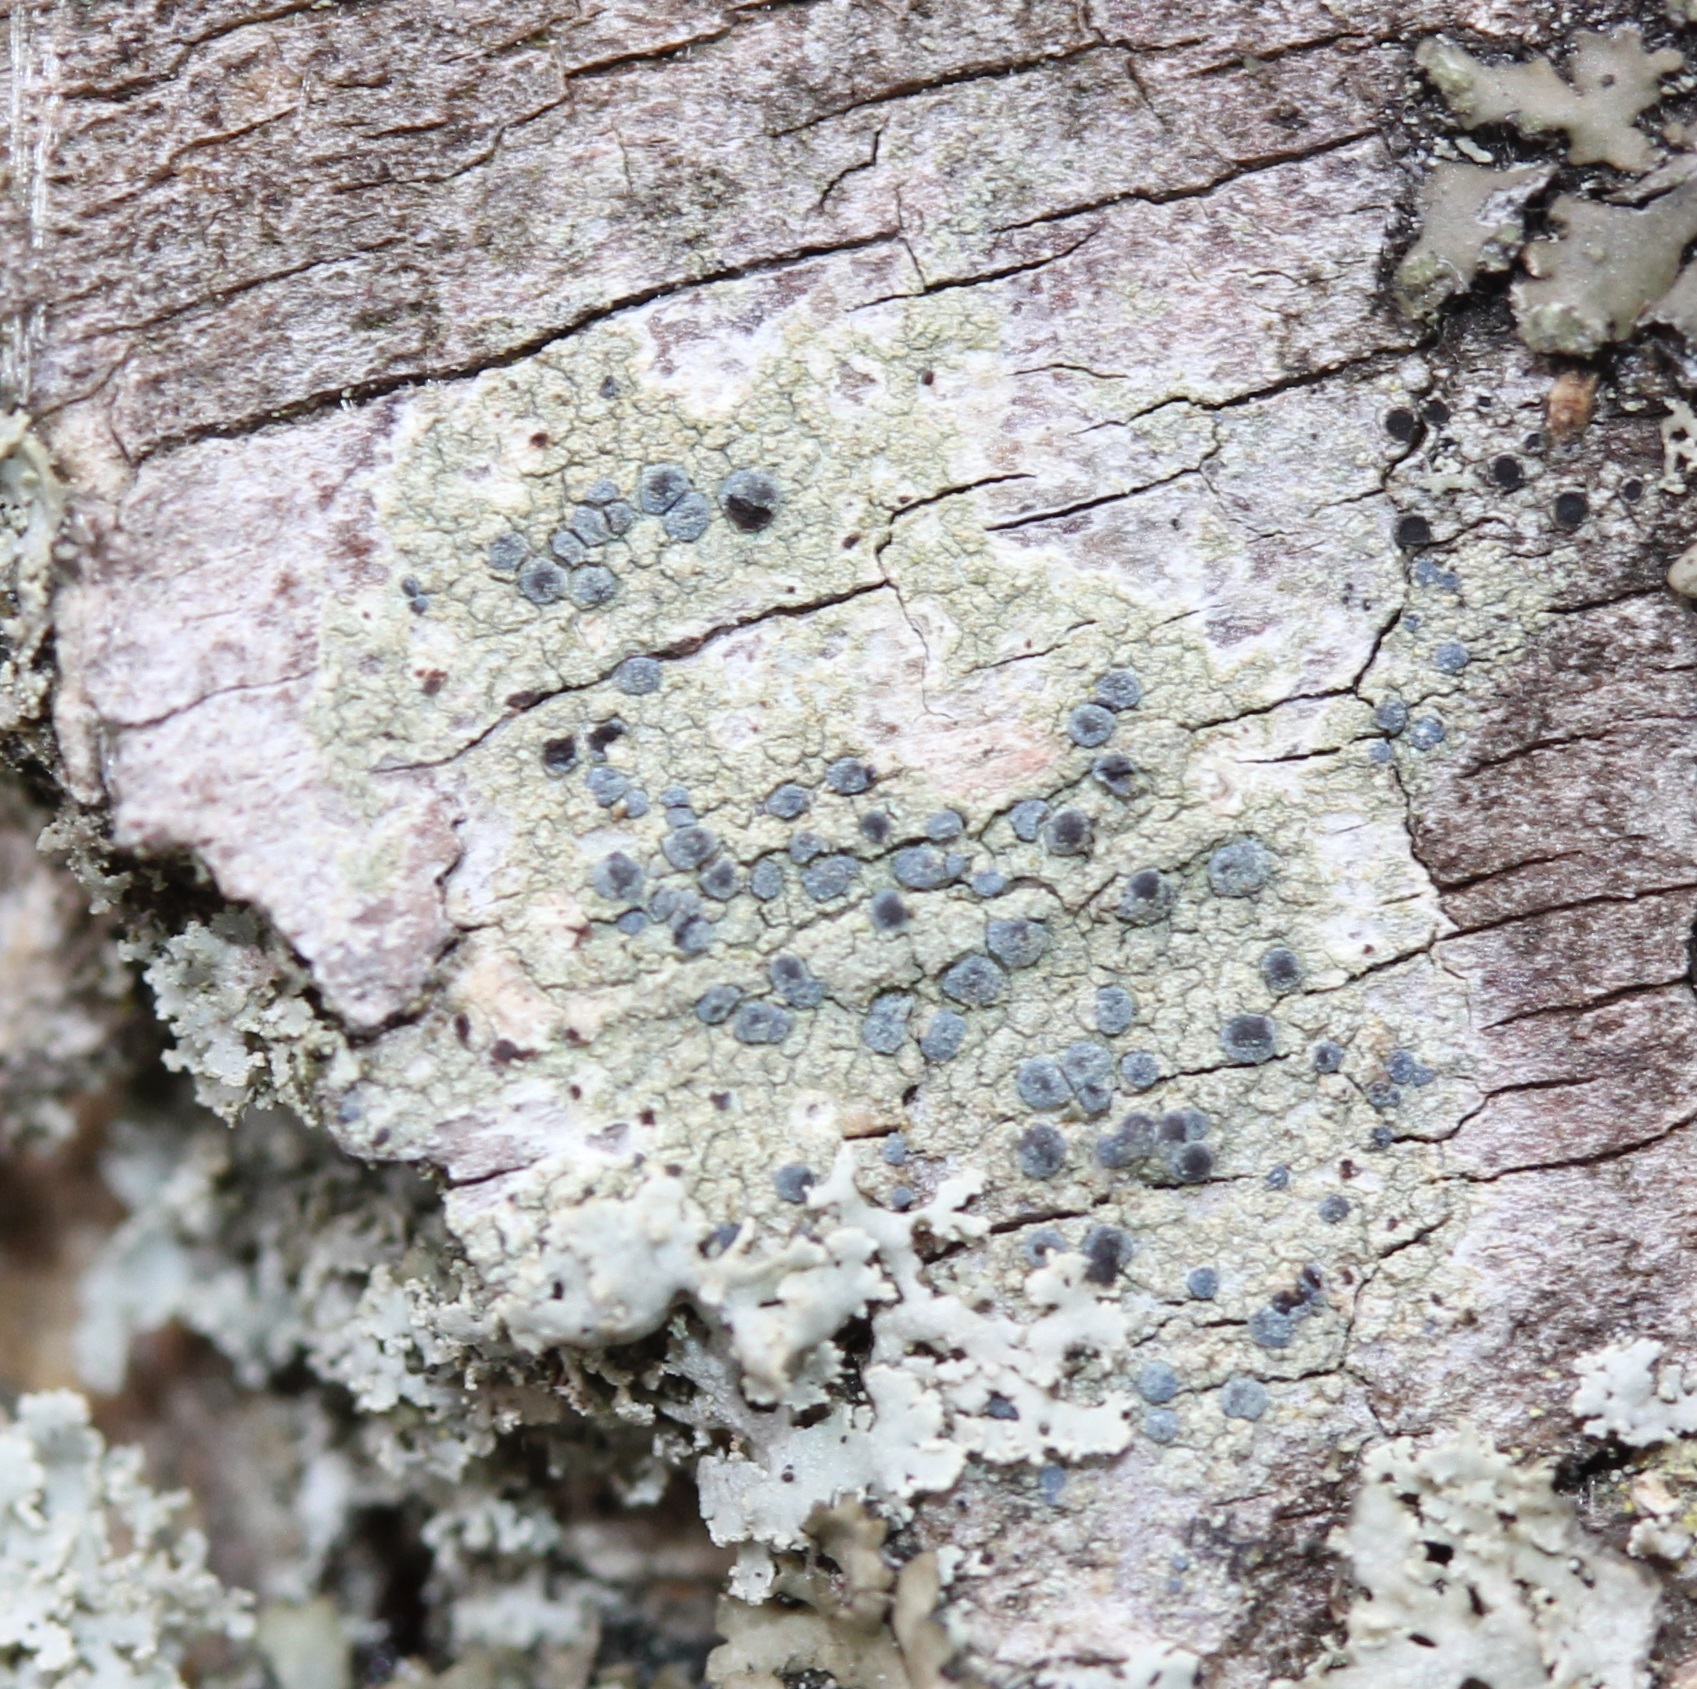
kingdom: Fungi
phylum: Ascomycota
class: Arthoniomycetes
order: Arthoniales
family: Chrysotrichaceae
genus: Chrysothrix
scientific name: Chrysothrix caesia
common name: Frosted comma lichen
